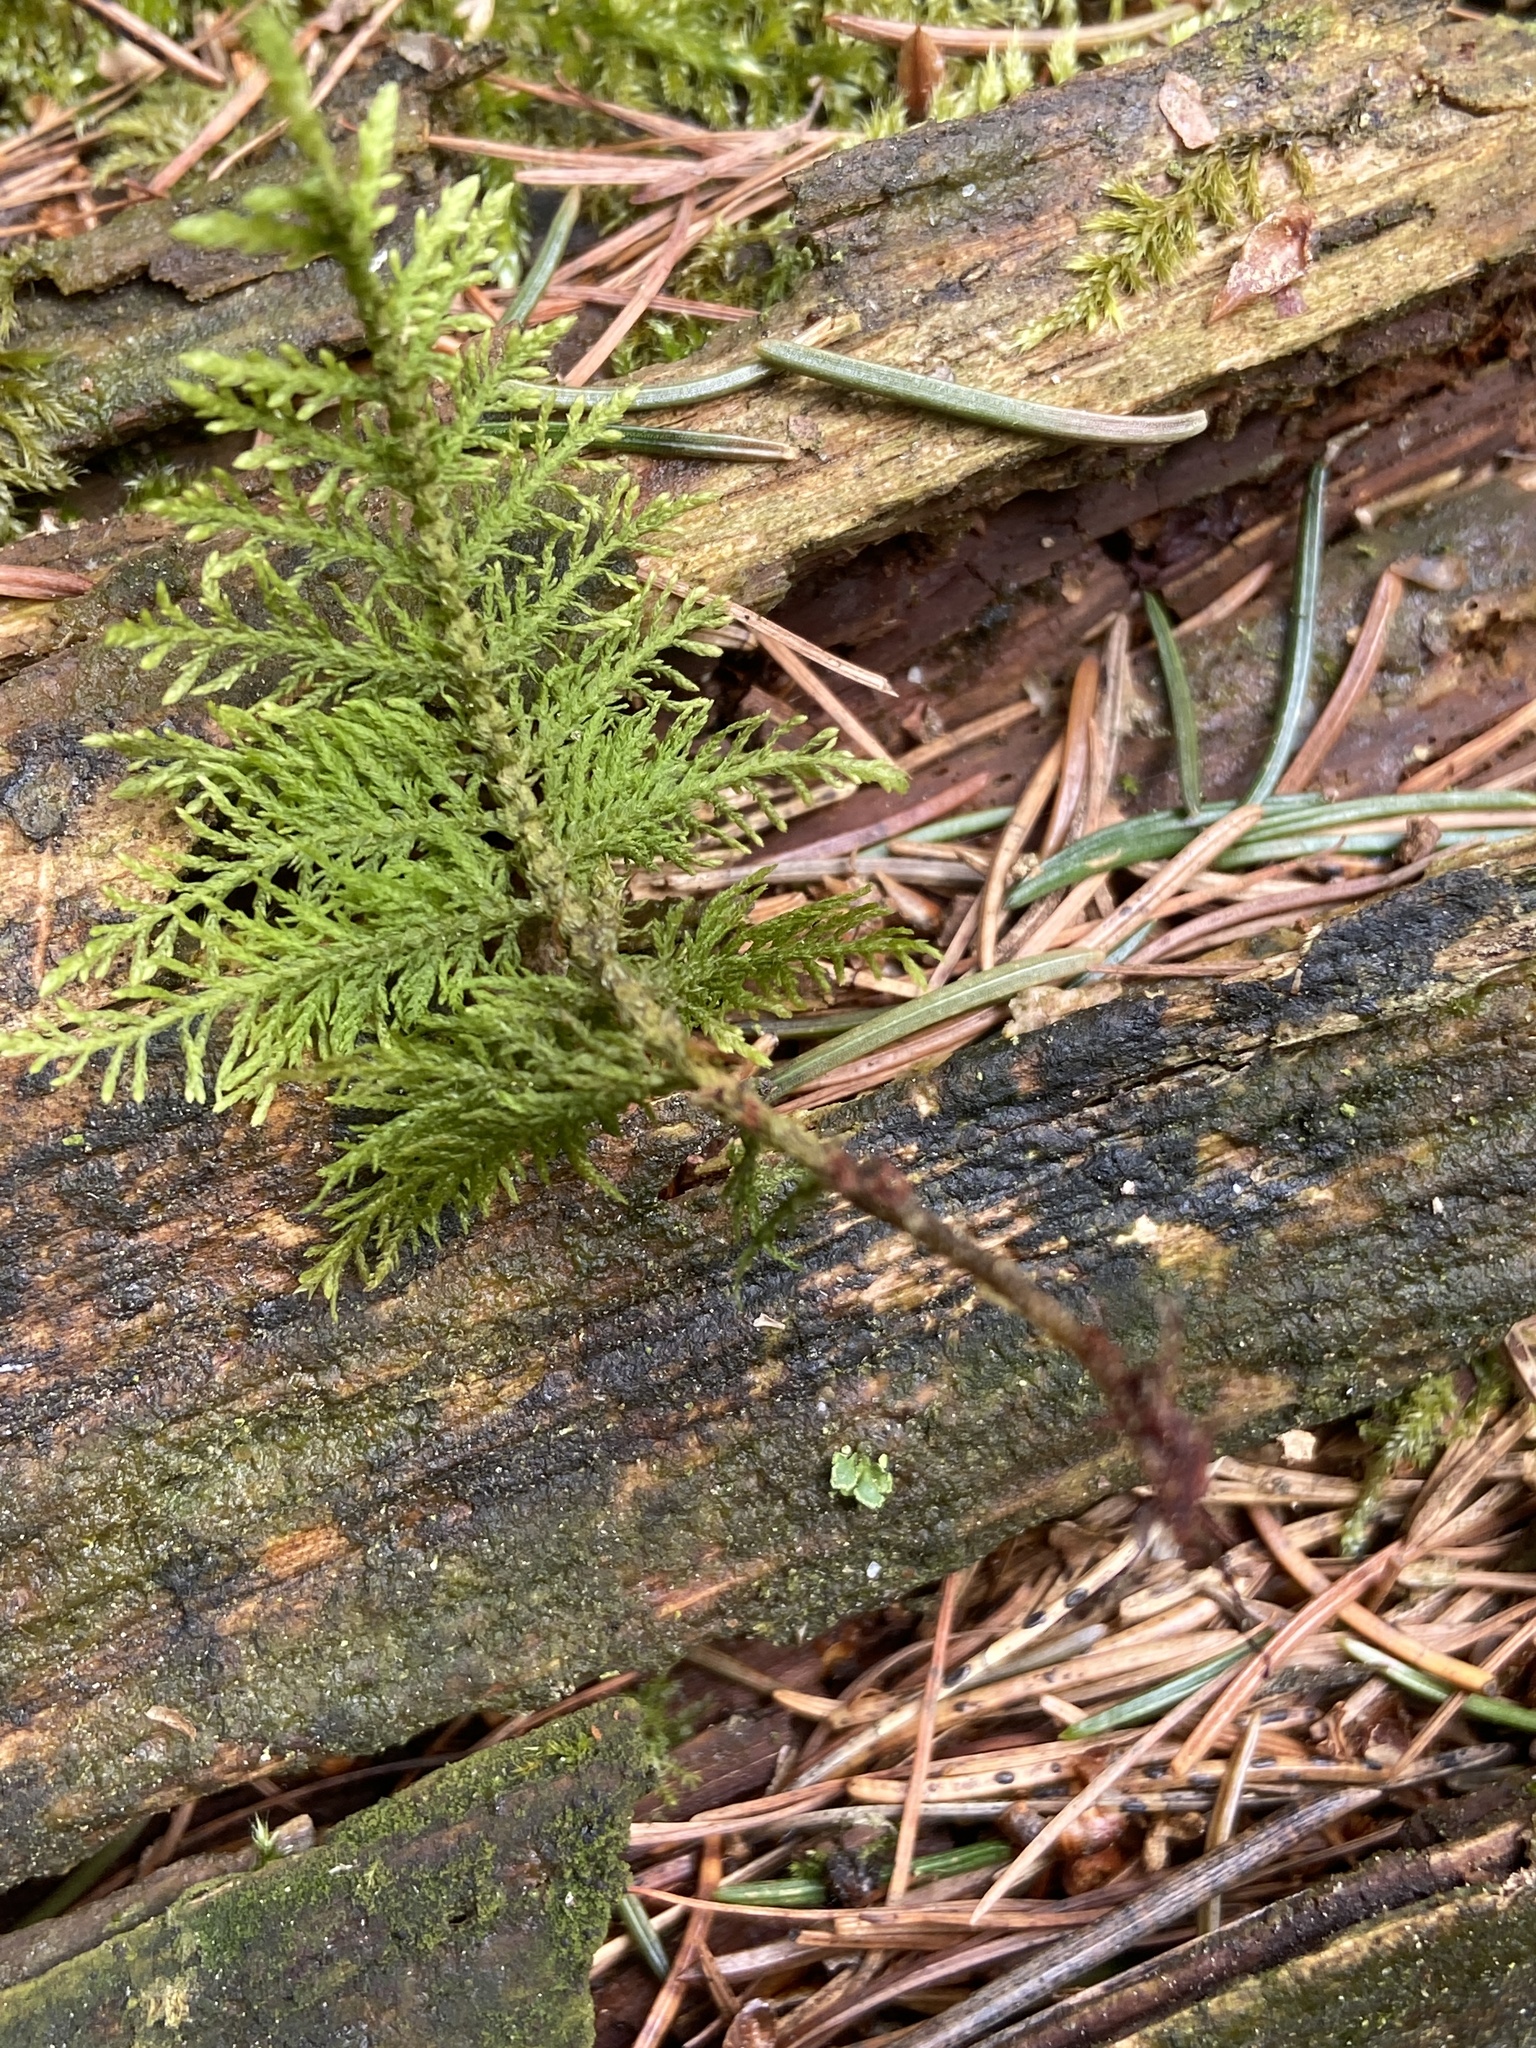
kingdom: Plantae
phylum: Bryophyta
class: Bryopsida
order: Hypnales
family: Thuidiaceae
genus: Thuidium
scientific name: Thuidium tamariscinum
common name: Common tamarisk-moss
